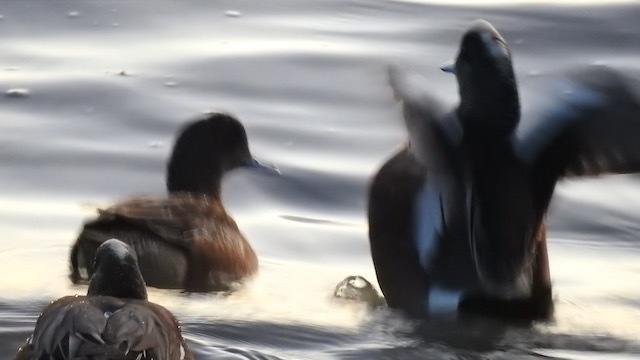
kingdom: Animalia
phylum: Chordata
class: Aves
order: Anseriformes
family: Anatidae
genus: Mareca
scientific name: Mareca americana
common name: American wigeon
